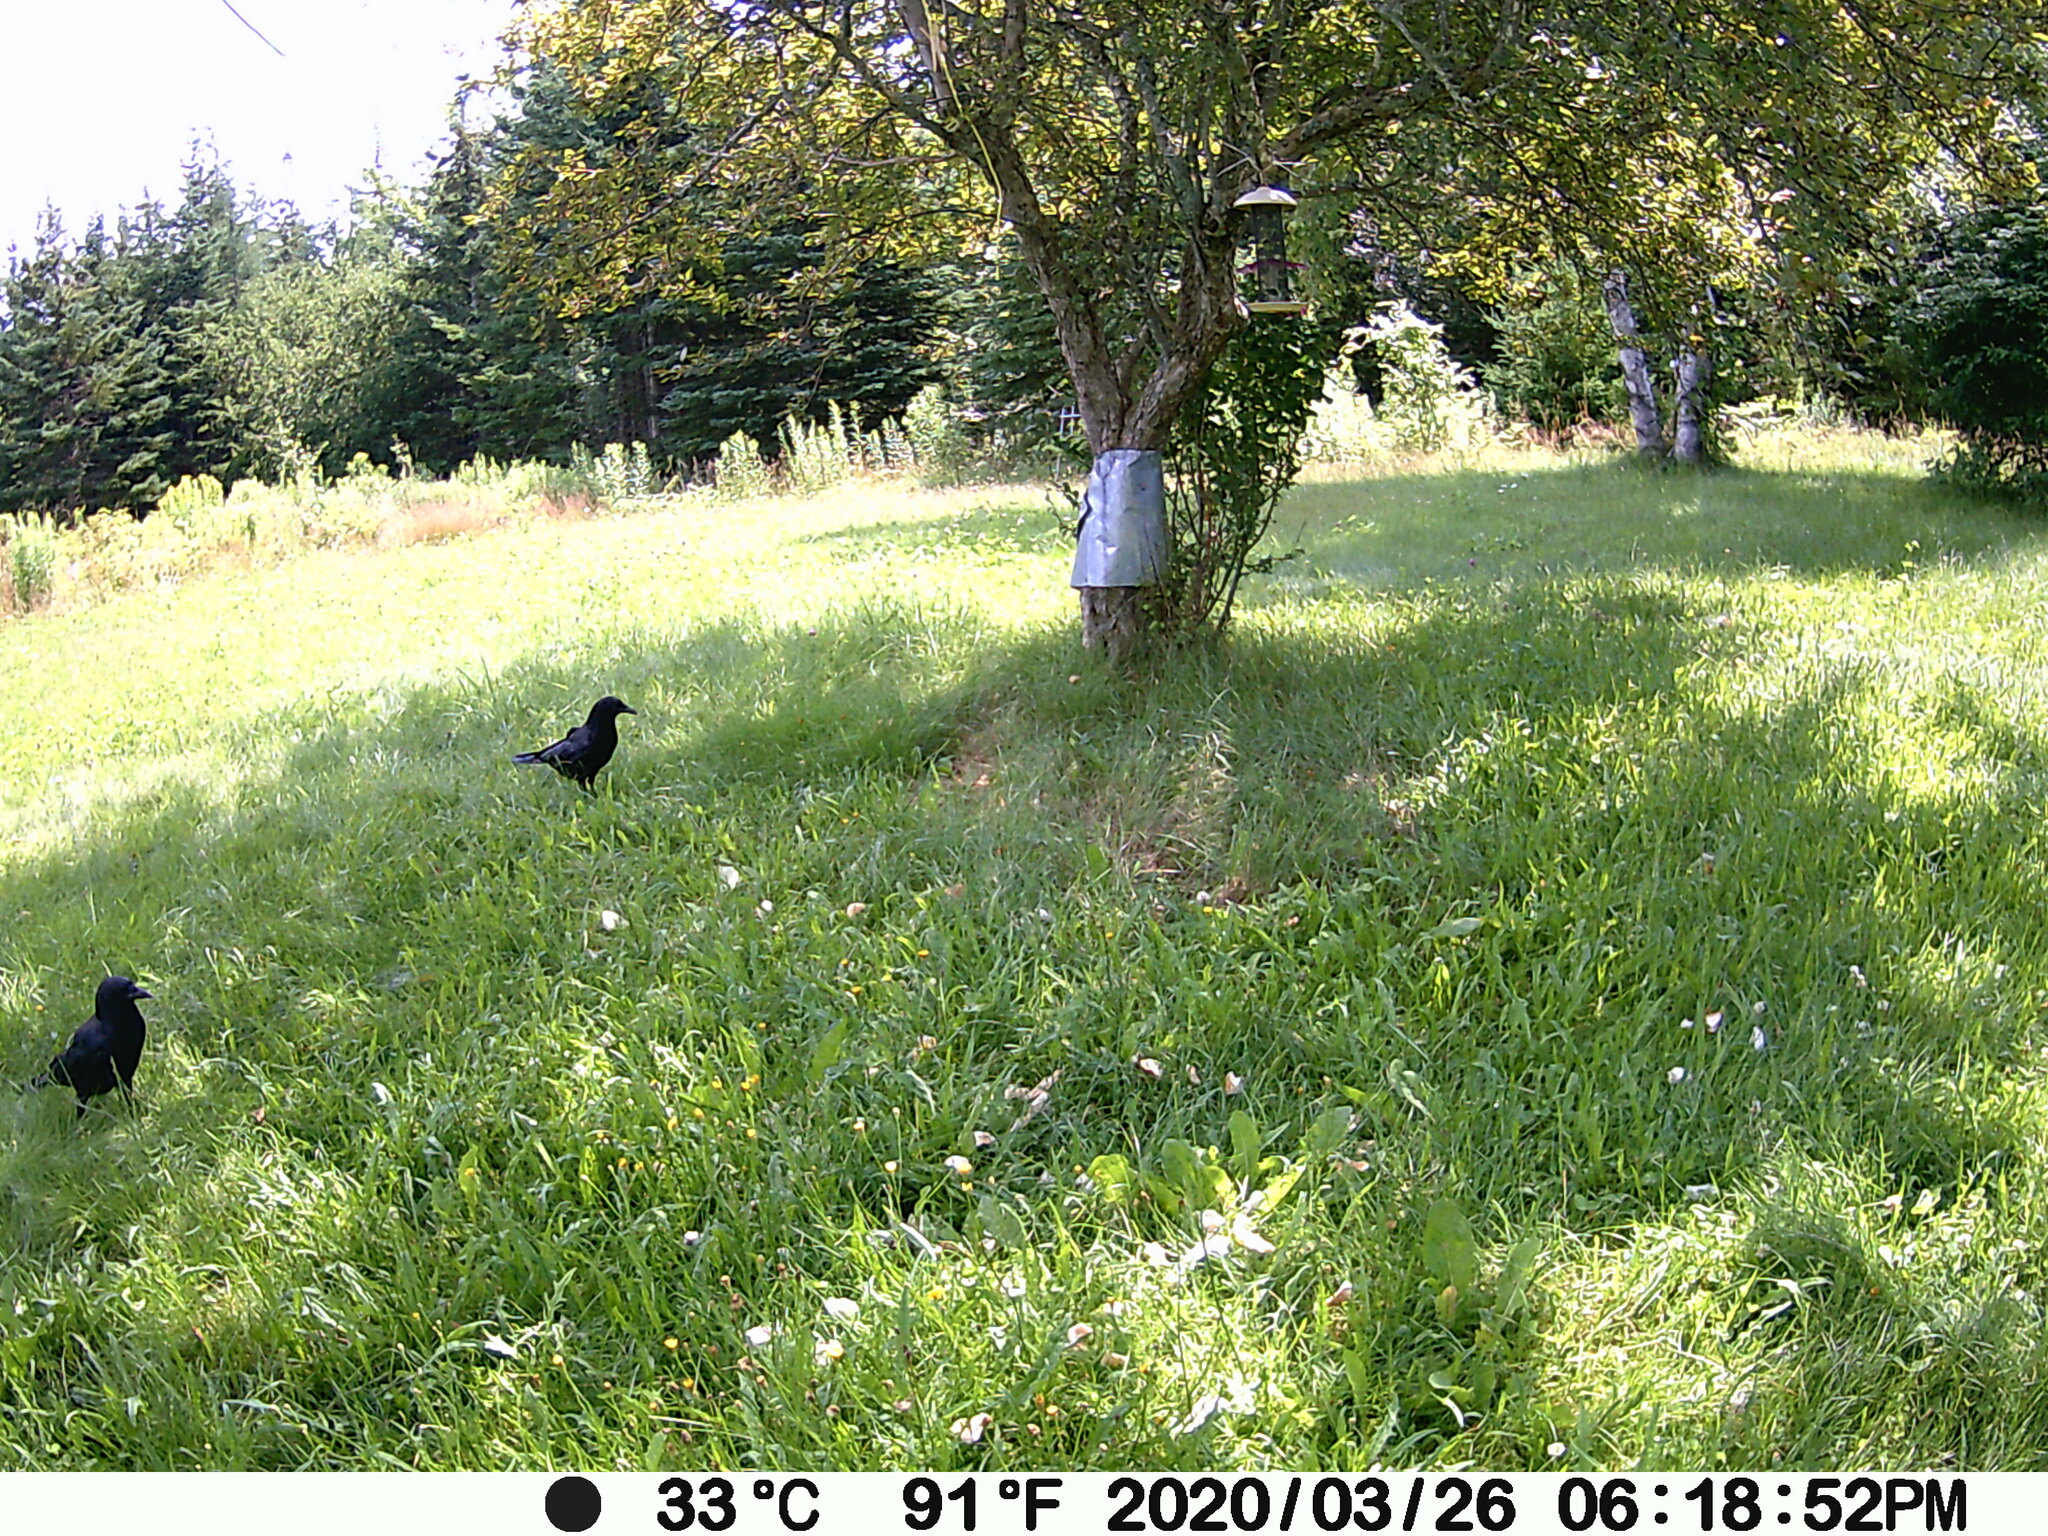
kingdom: Animalia
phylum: Chordata
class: Aves
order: Passeriformes
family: Corvidae
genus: Corvus
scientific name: Corvus brachyrhynchos
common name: American crow
